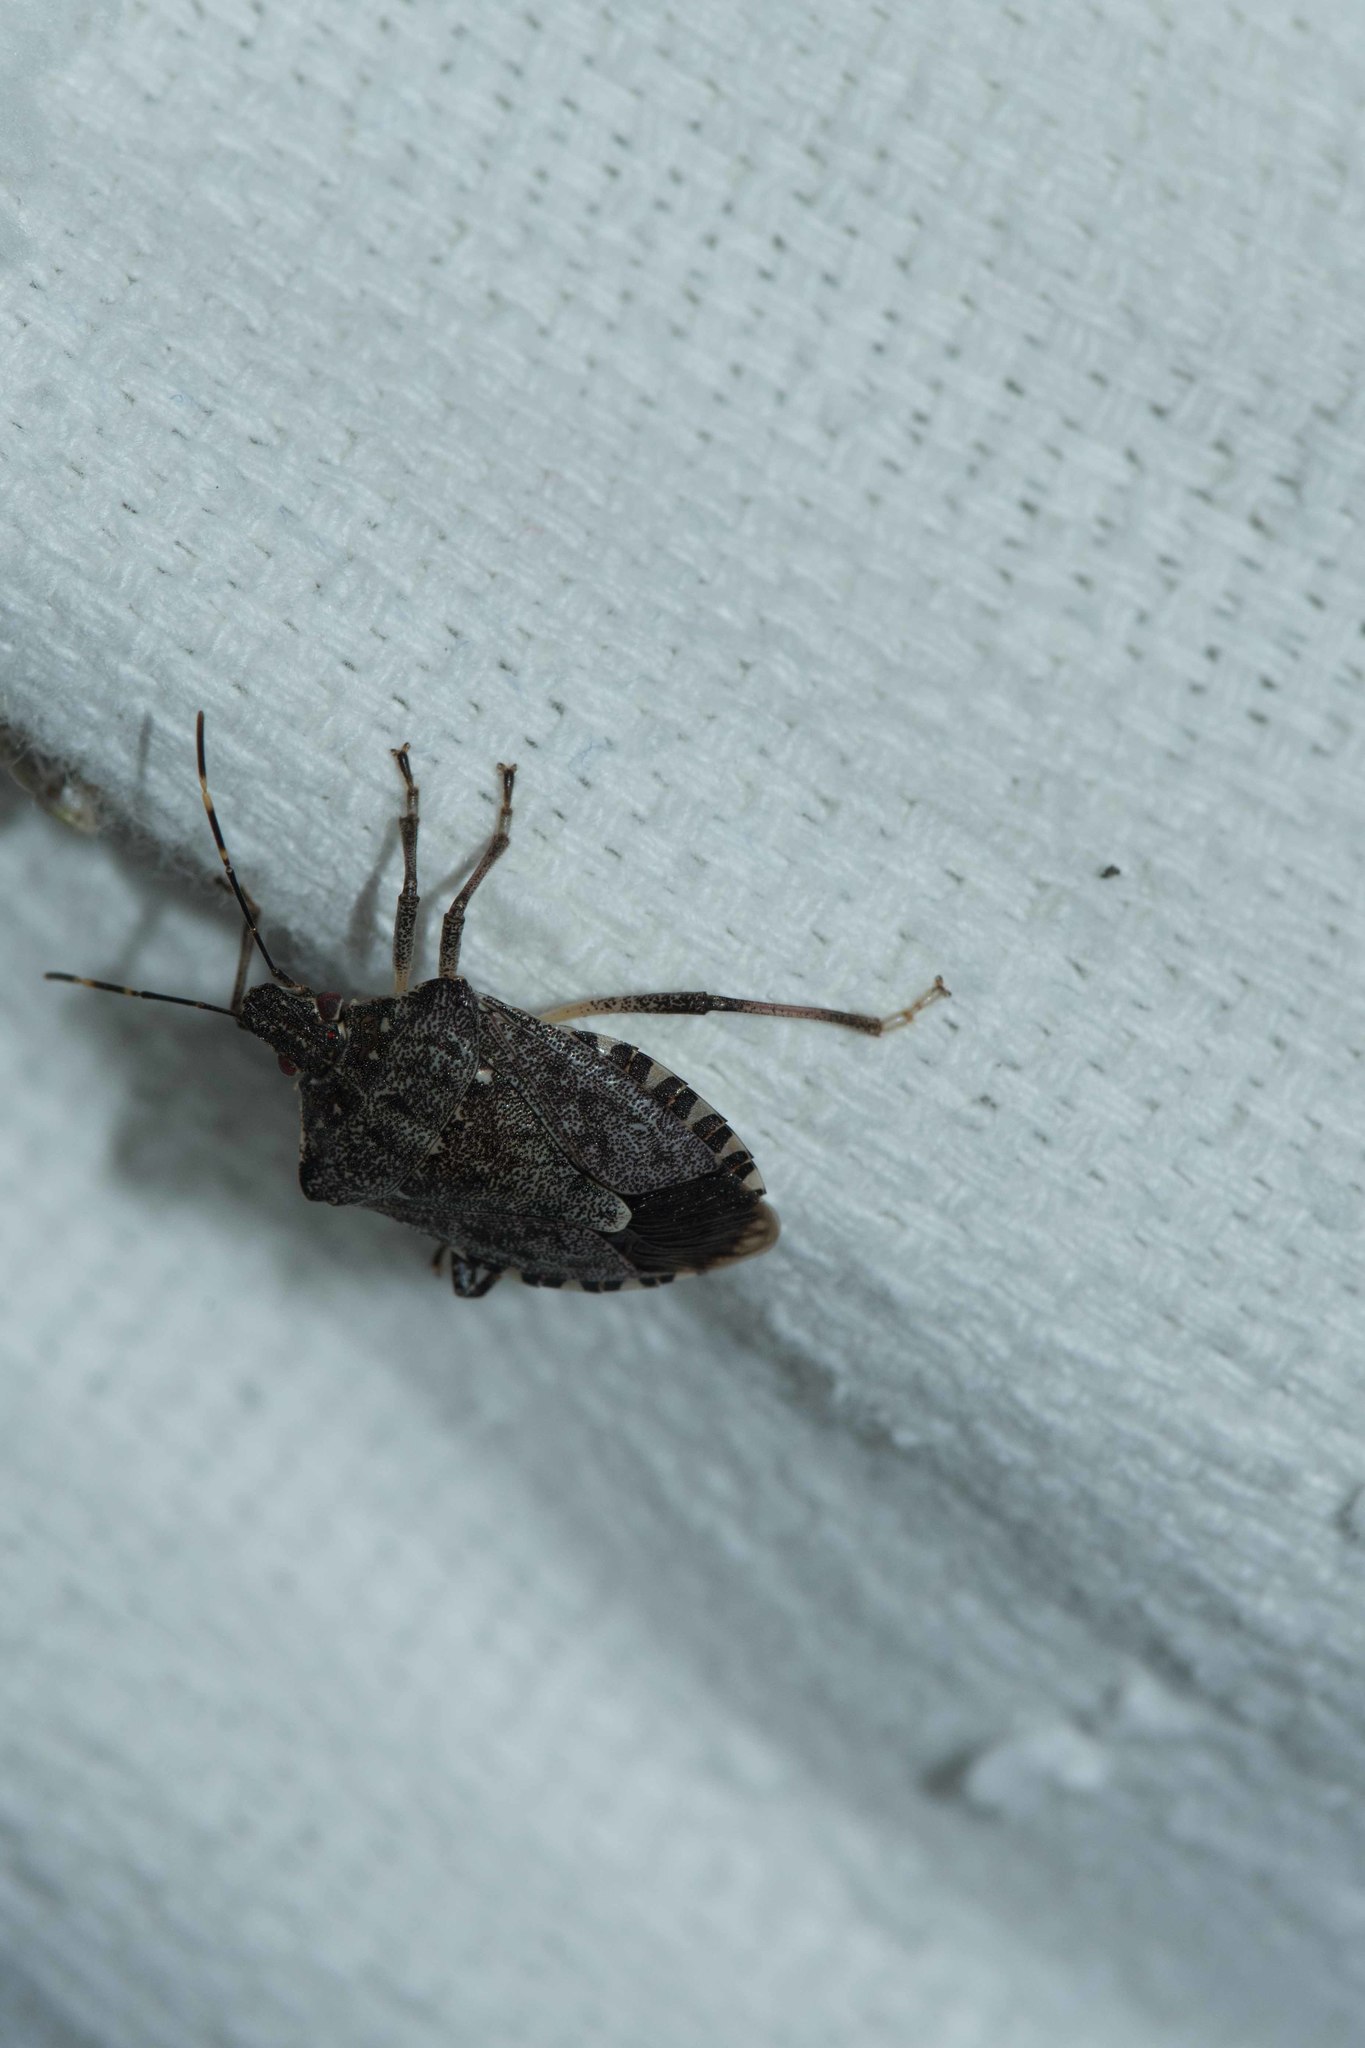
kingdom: Animalia
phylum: Arthropoda
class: Insecta
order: Hemiptera
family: Pentatomidae
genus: Halyomorpha
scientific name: Halyomorpha halys
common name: Brown marmorated stink bug
